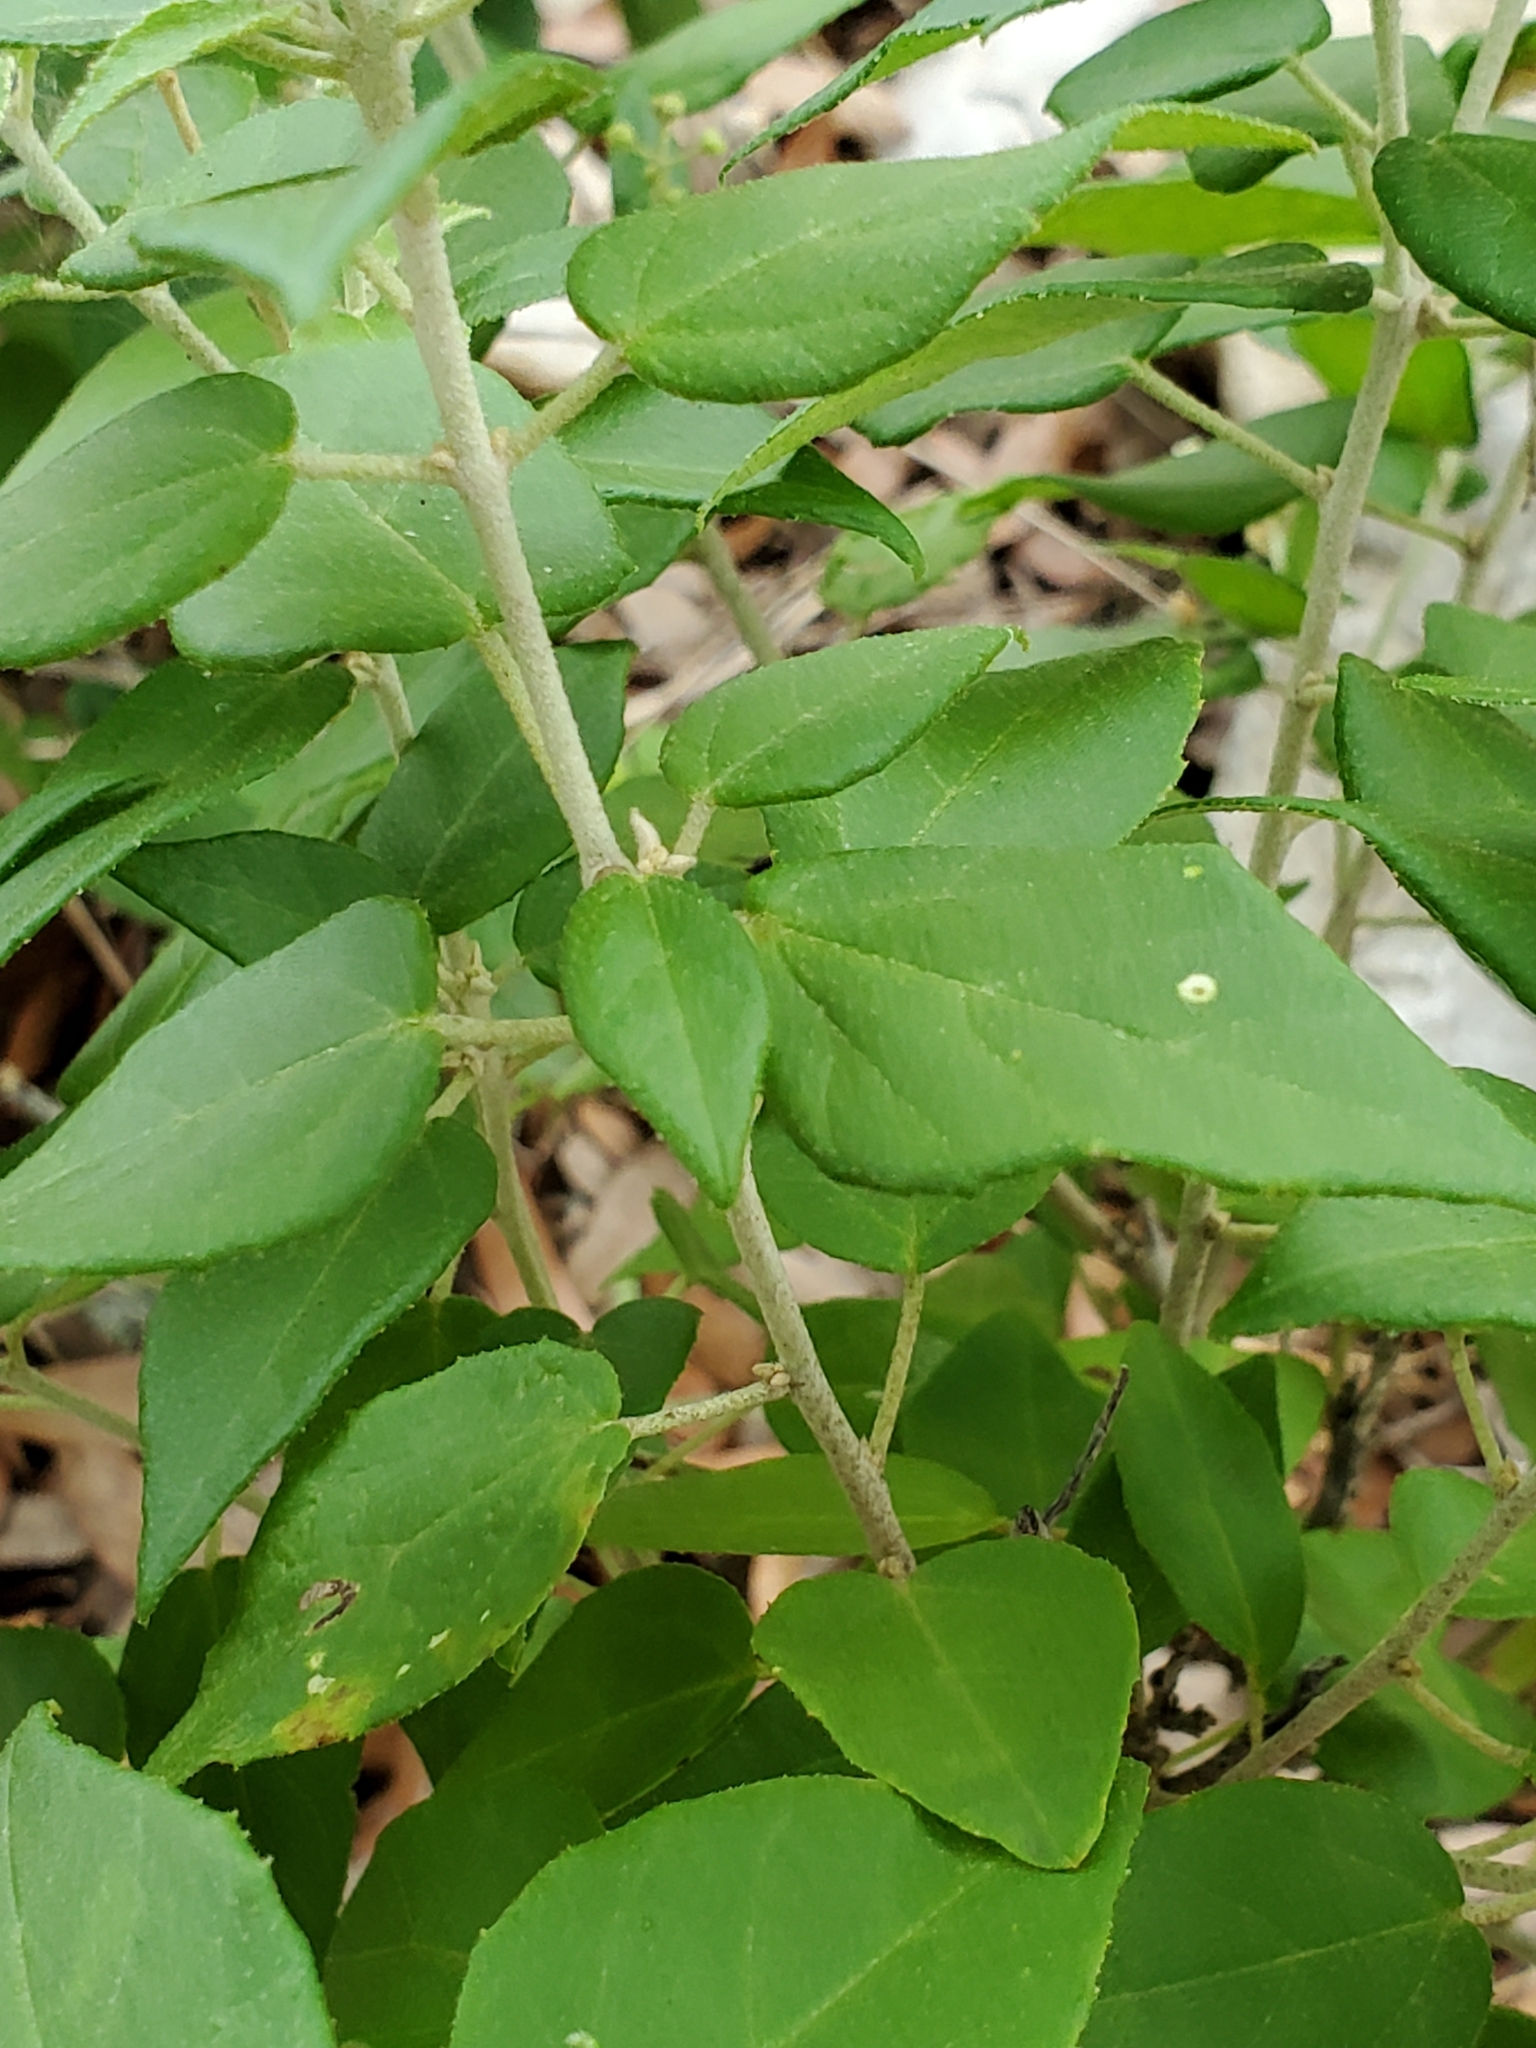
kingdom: Plantae
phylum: Tracheophyta
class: Magnoliopsida
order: Malpighiales
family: Euphorbiaceae
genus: Croton
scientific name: Croton fruticulosus
